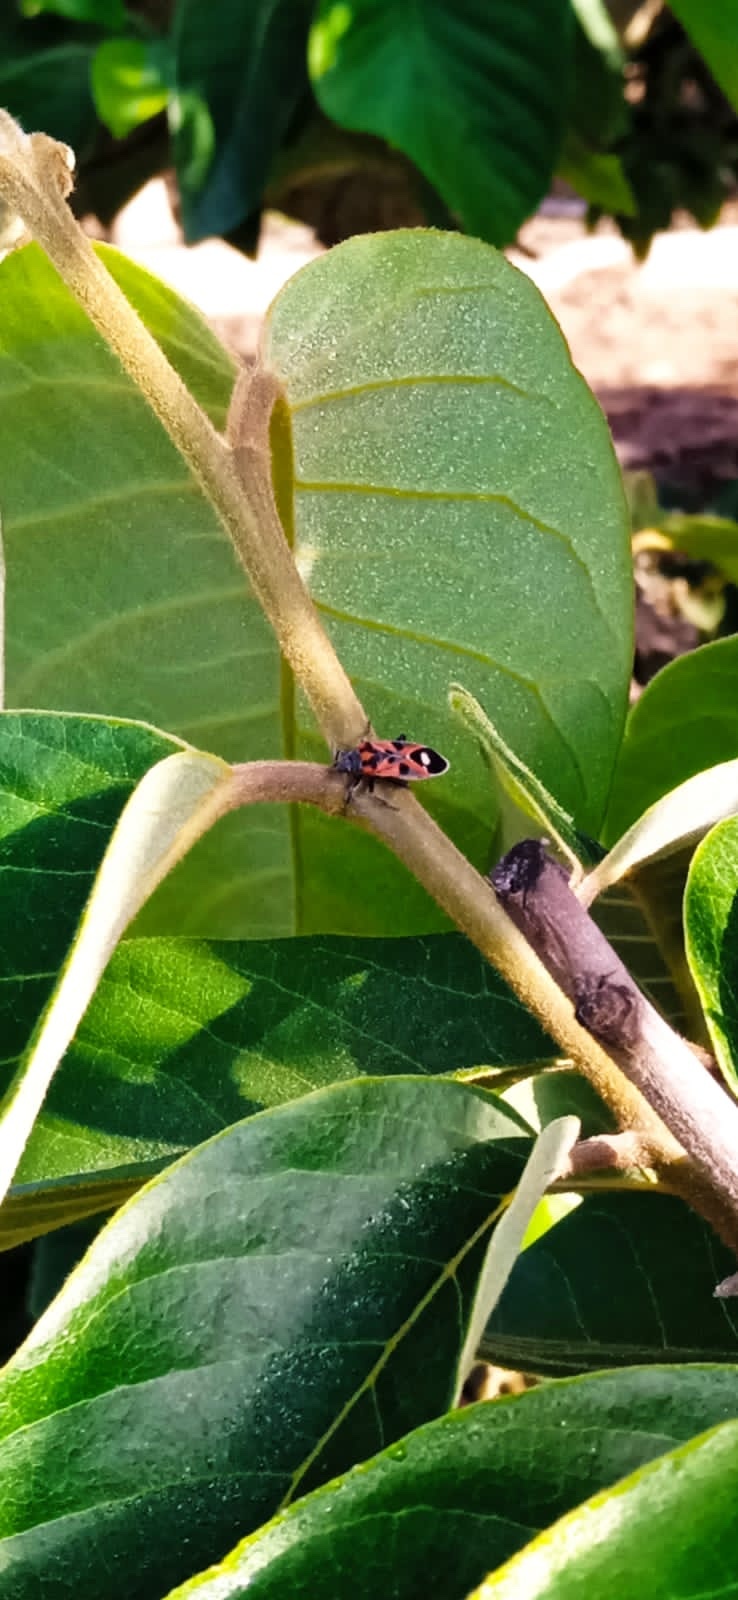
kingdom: Animalia
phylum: Arthropoda
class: Insecta
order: Hemiptera
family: Lygaeidae
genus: Lygaeus
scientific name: Lygaeus alboornatus
